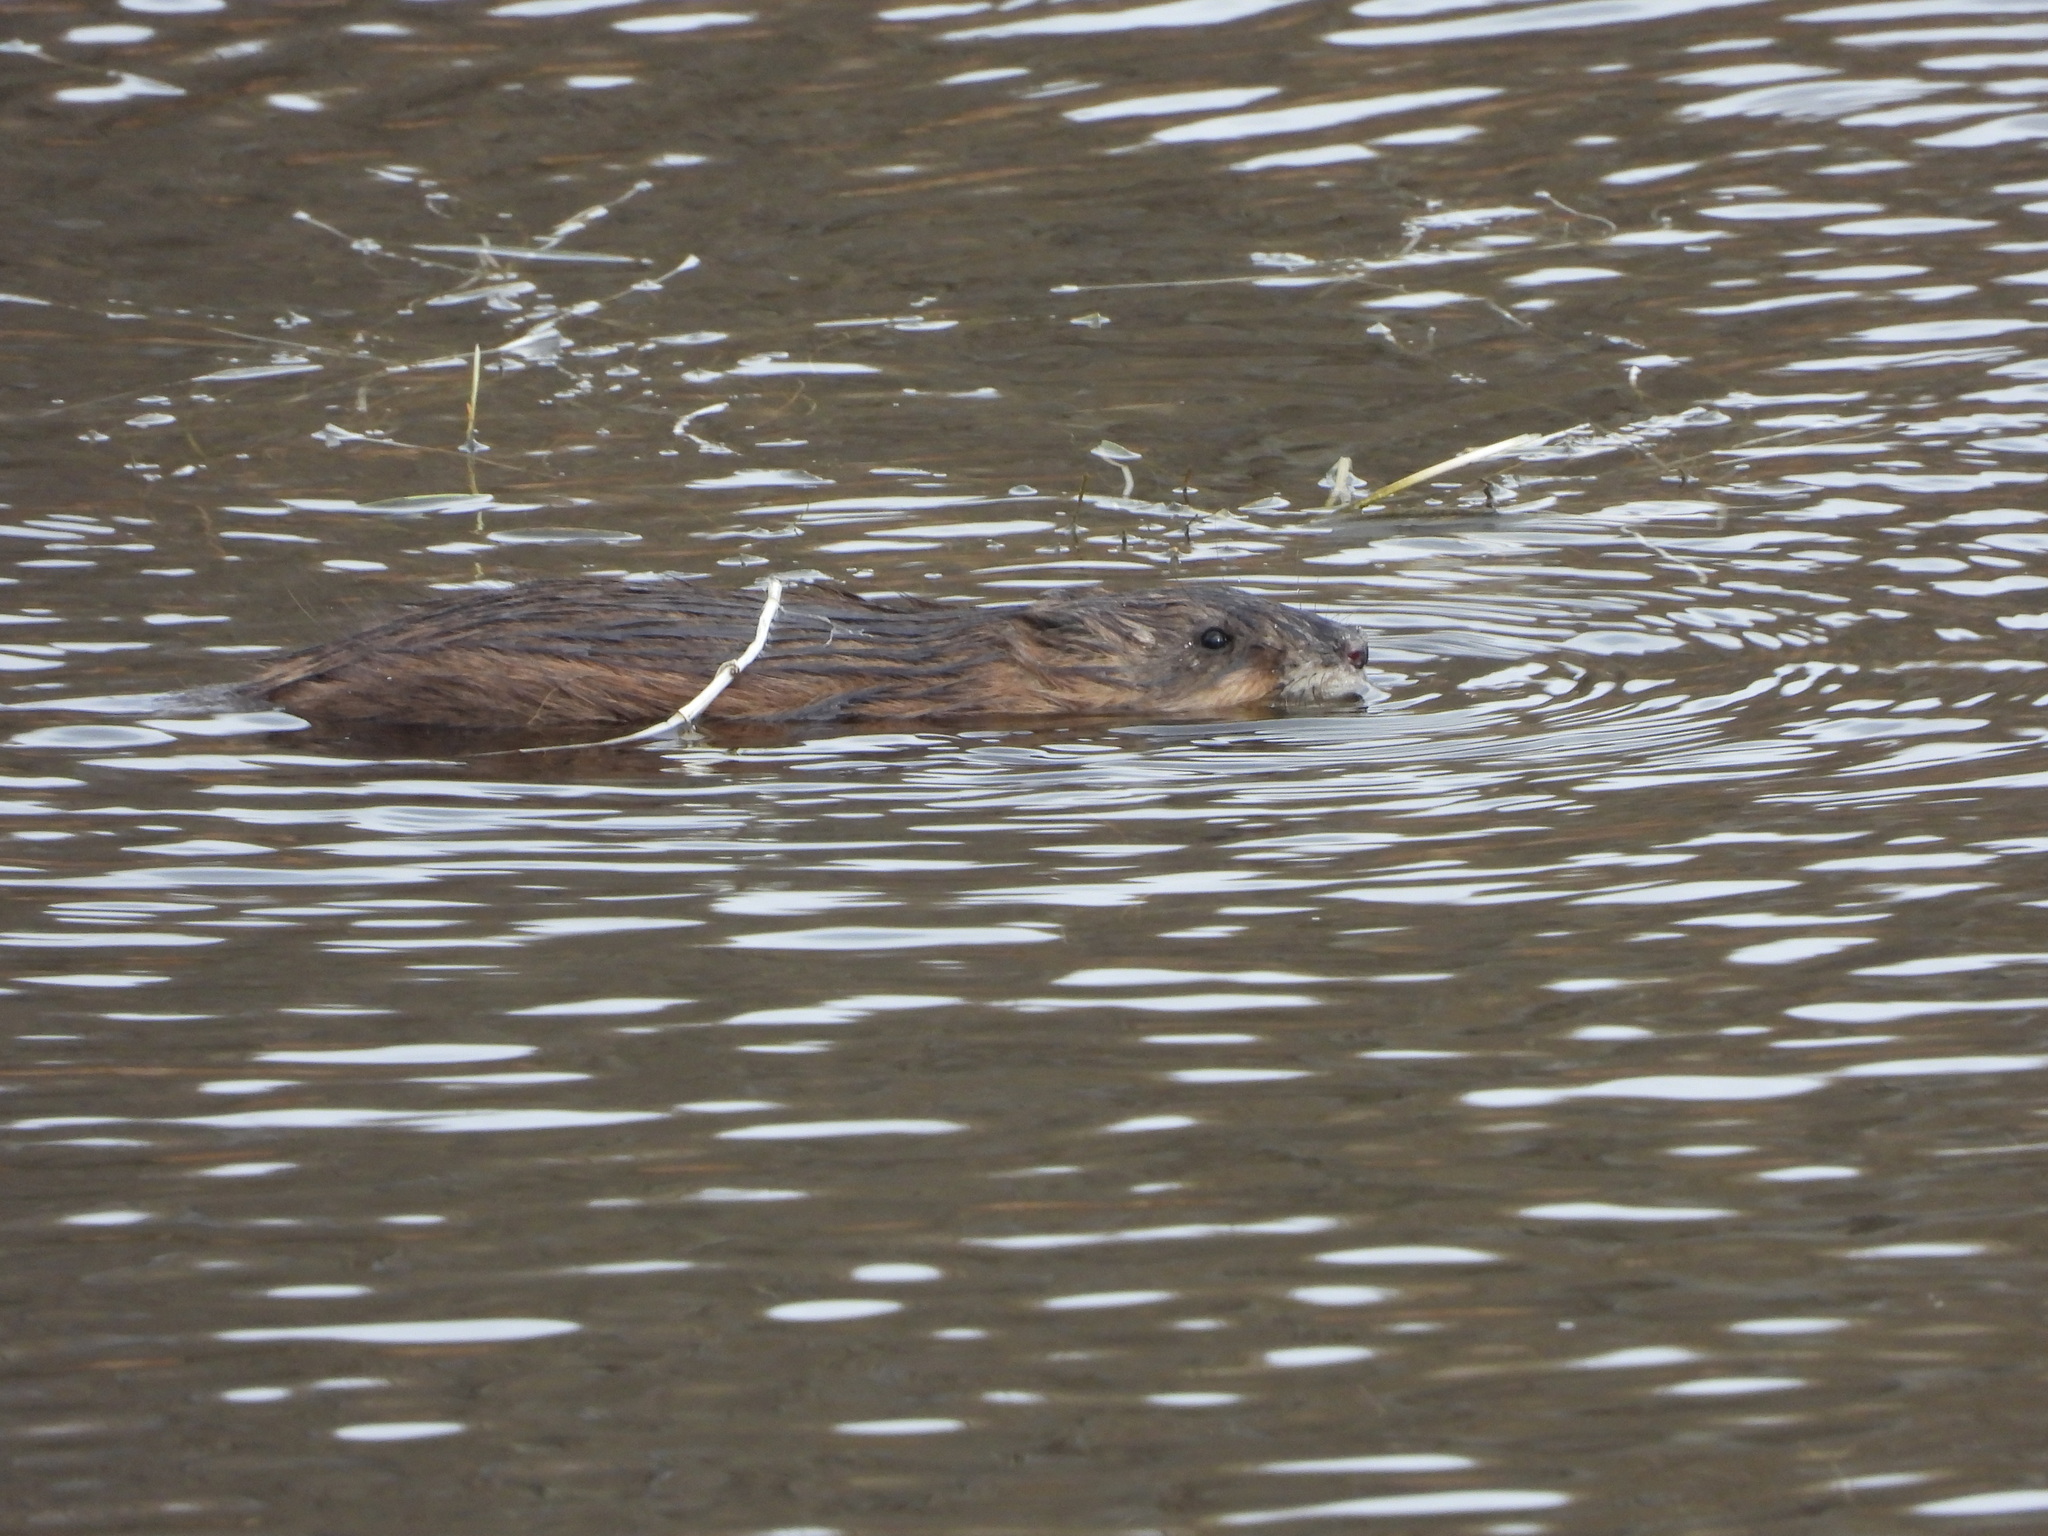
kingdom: Animalia
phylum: Chordata
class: Mammalia
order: Rodentia
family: Cricetidae
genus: Ondatra
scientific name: Ondatra zibethicus
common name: Muskrat
